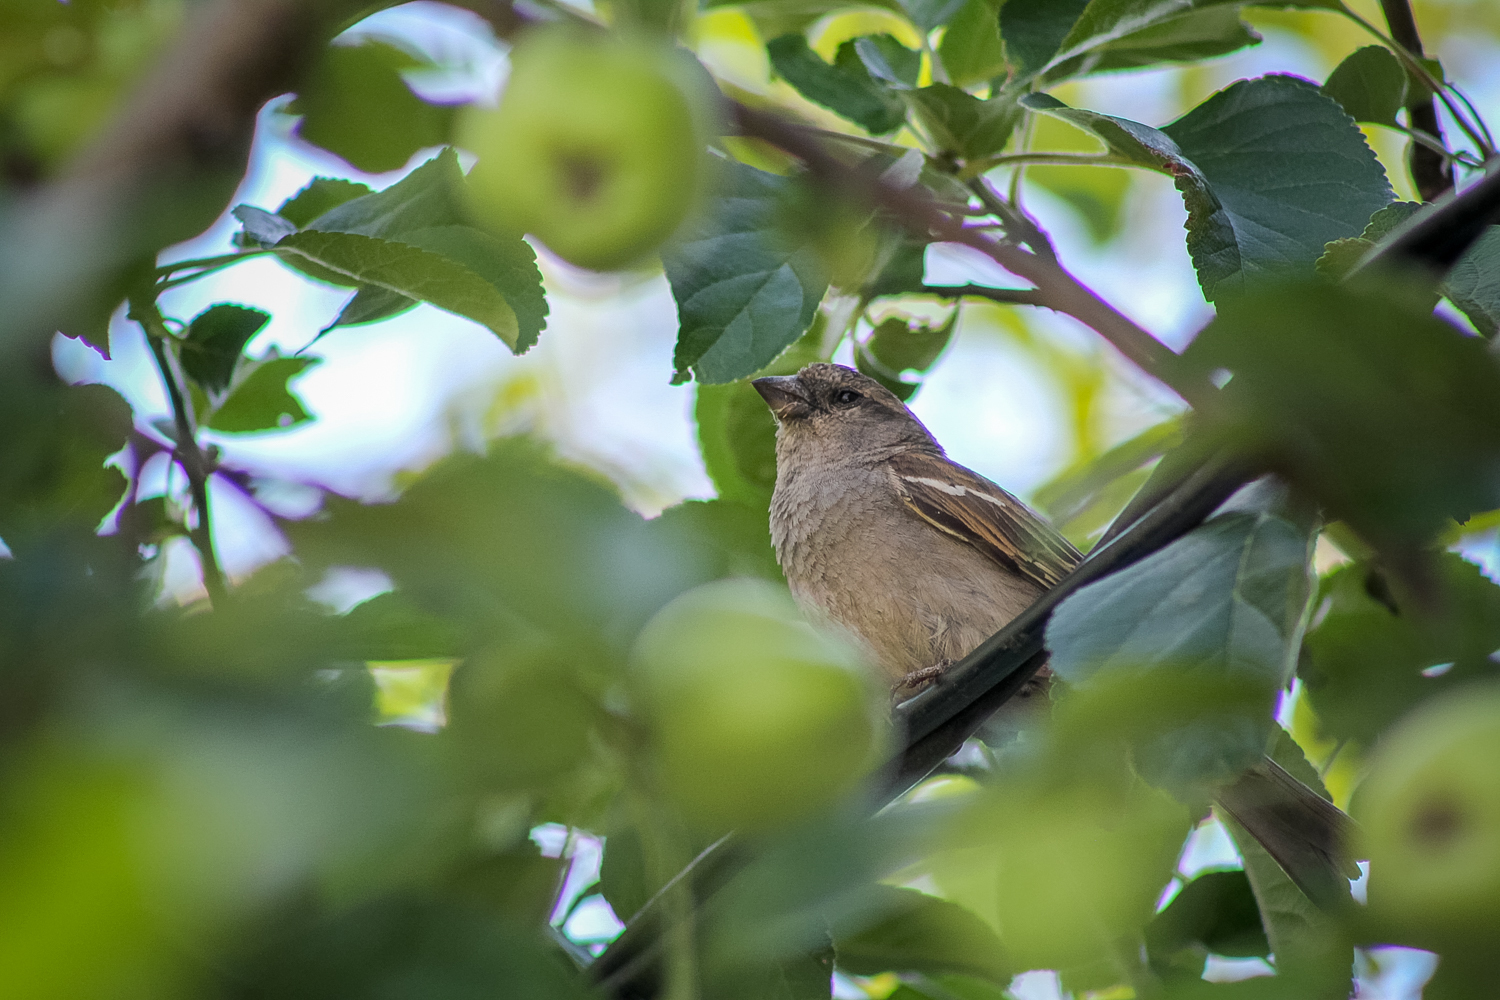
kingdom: Animalia
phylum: Chordata
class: Aves
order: Passeriformes
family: Passeridae
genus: Passer
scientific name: Passer domesticus
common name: House sparrow
